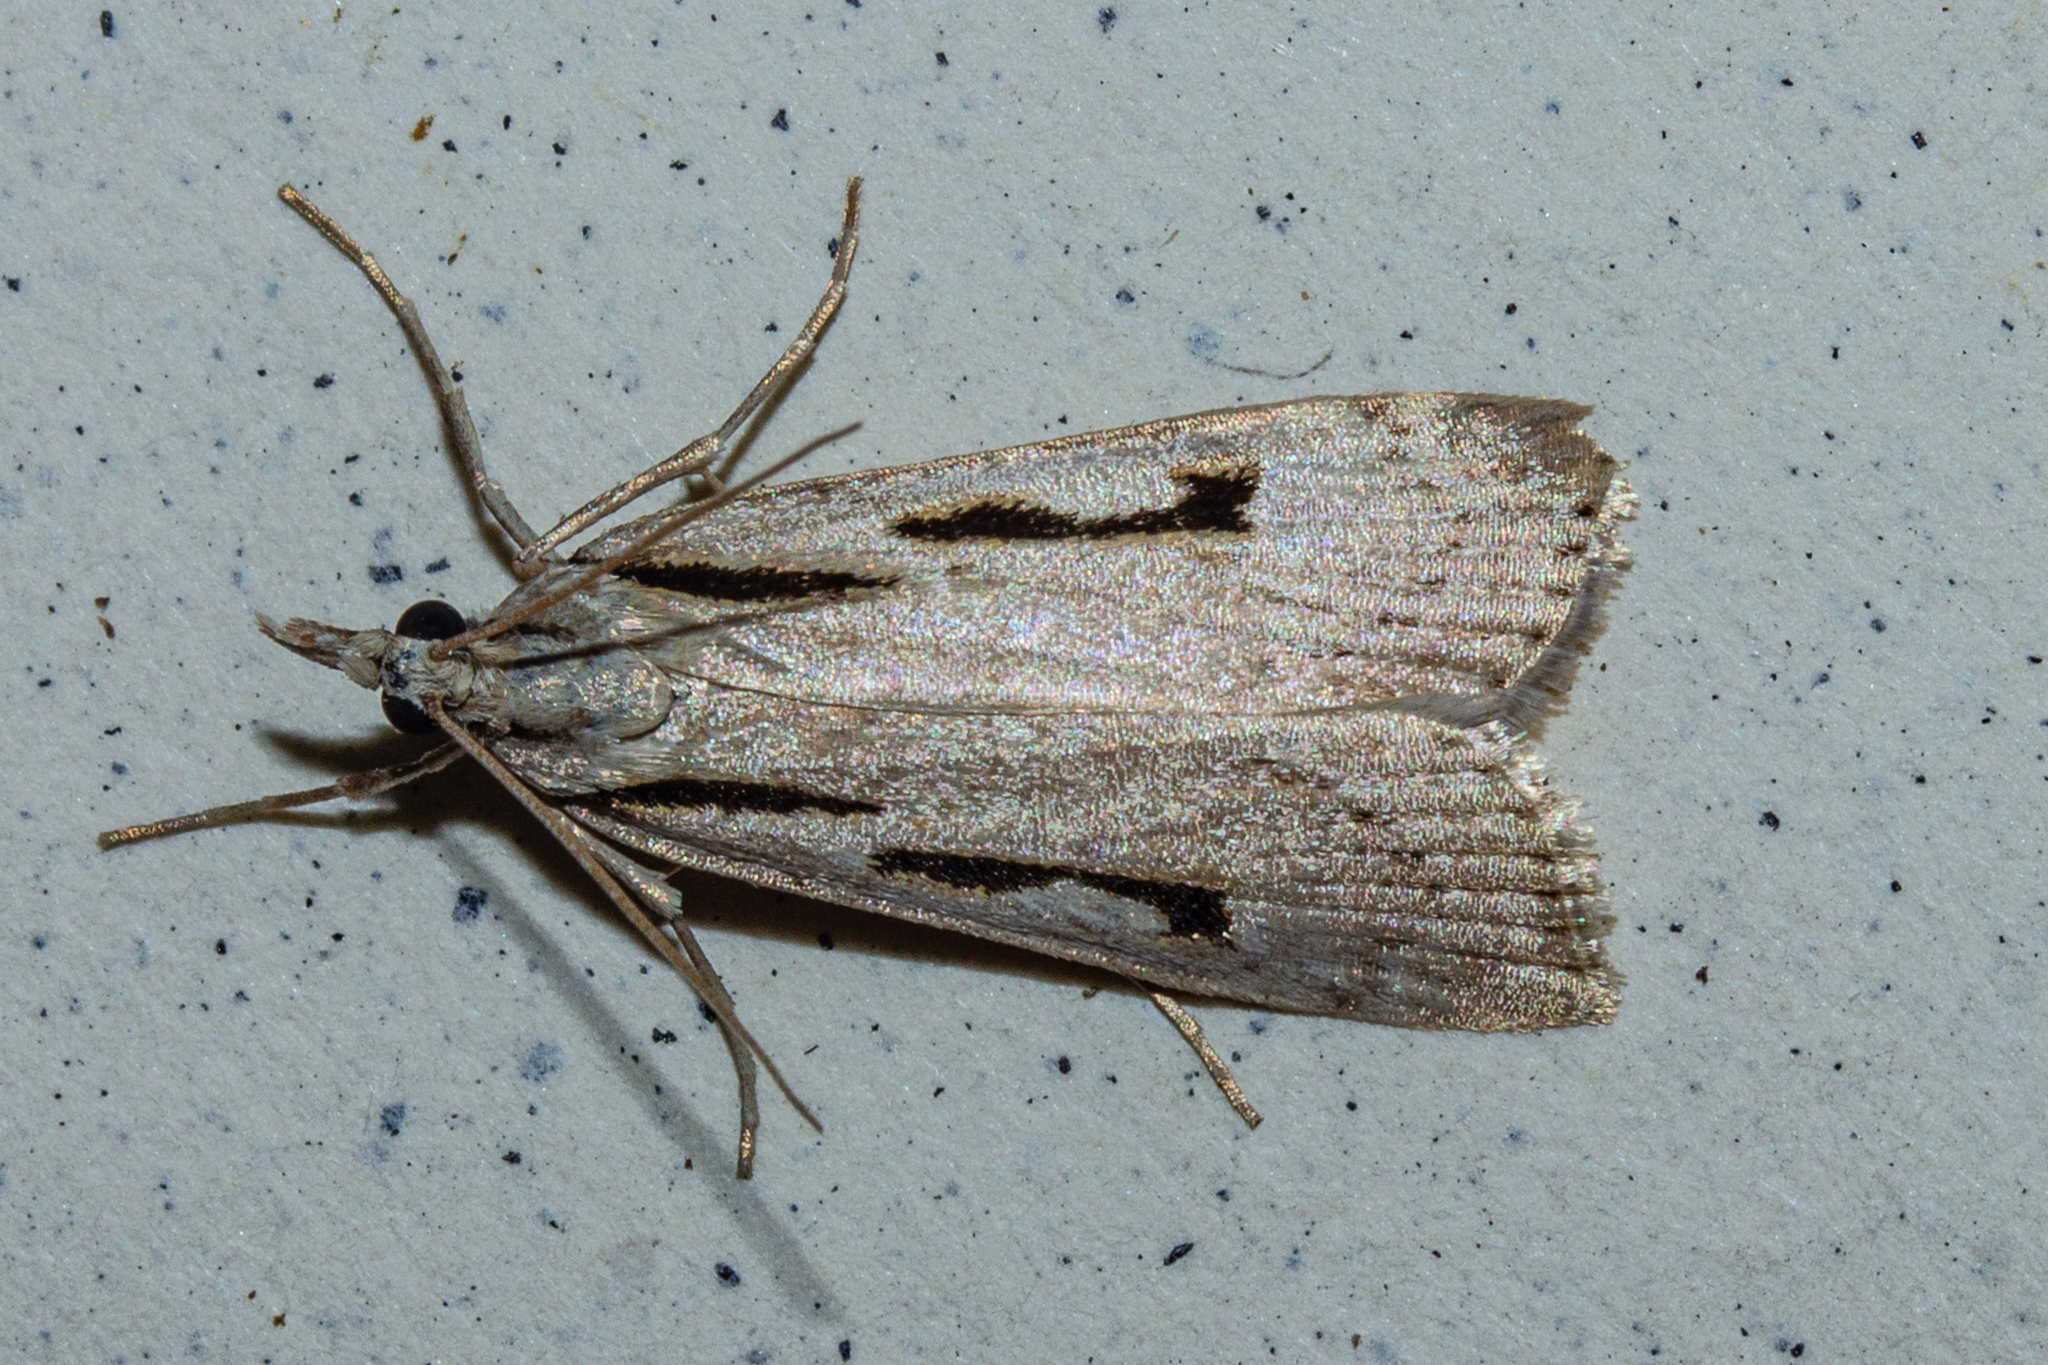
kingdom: Animalia
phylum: Arthropoda
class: Insecta
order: Lepidoptera
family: Crambidae
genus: Scoparia
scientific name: Scoparia rotuellus
